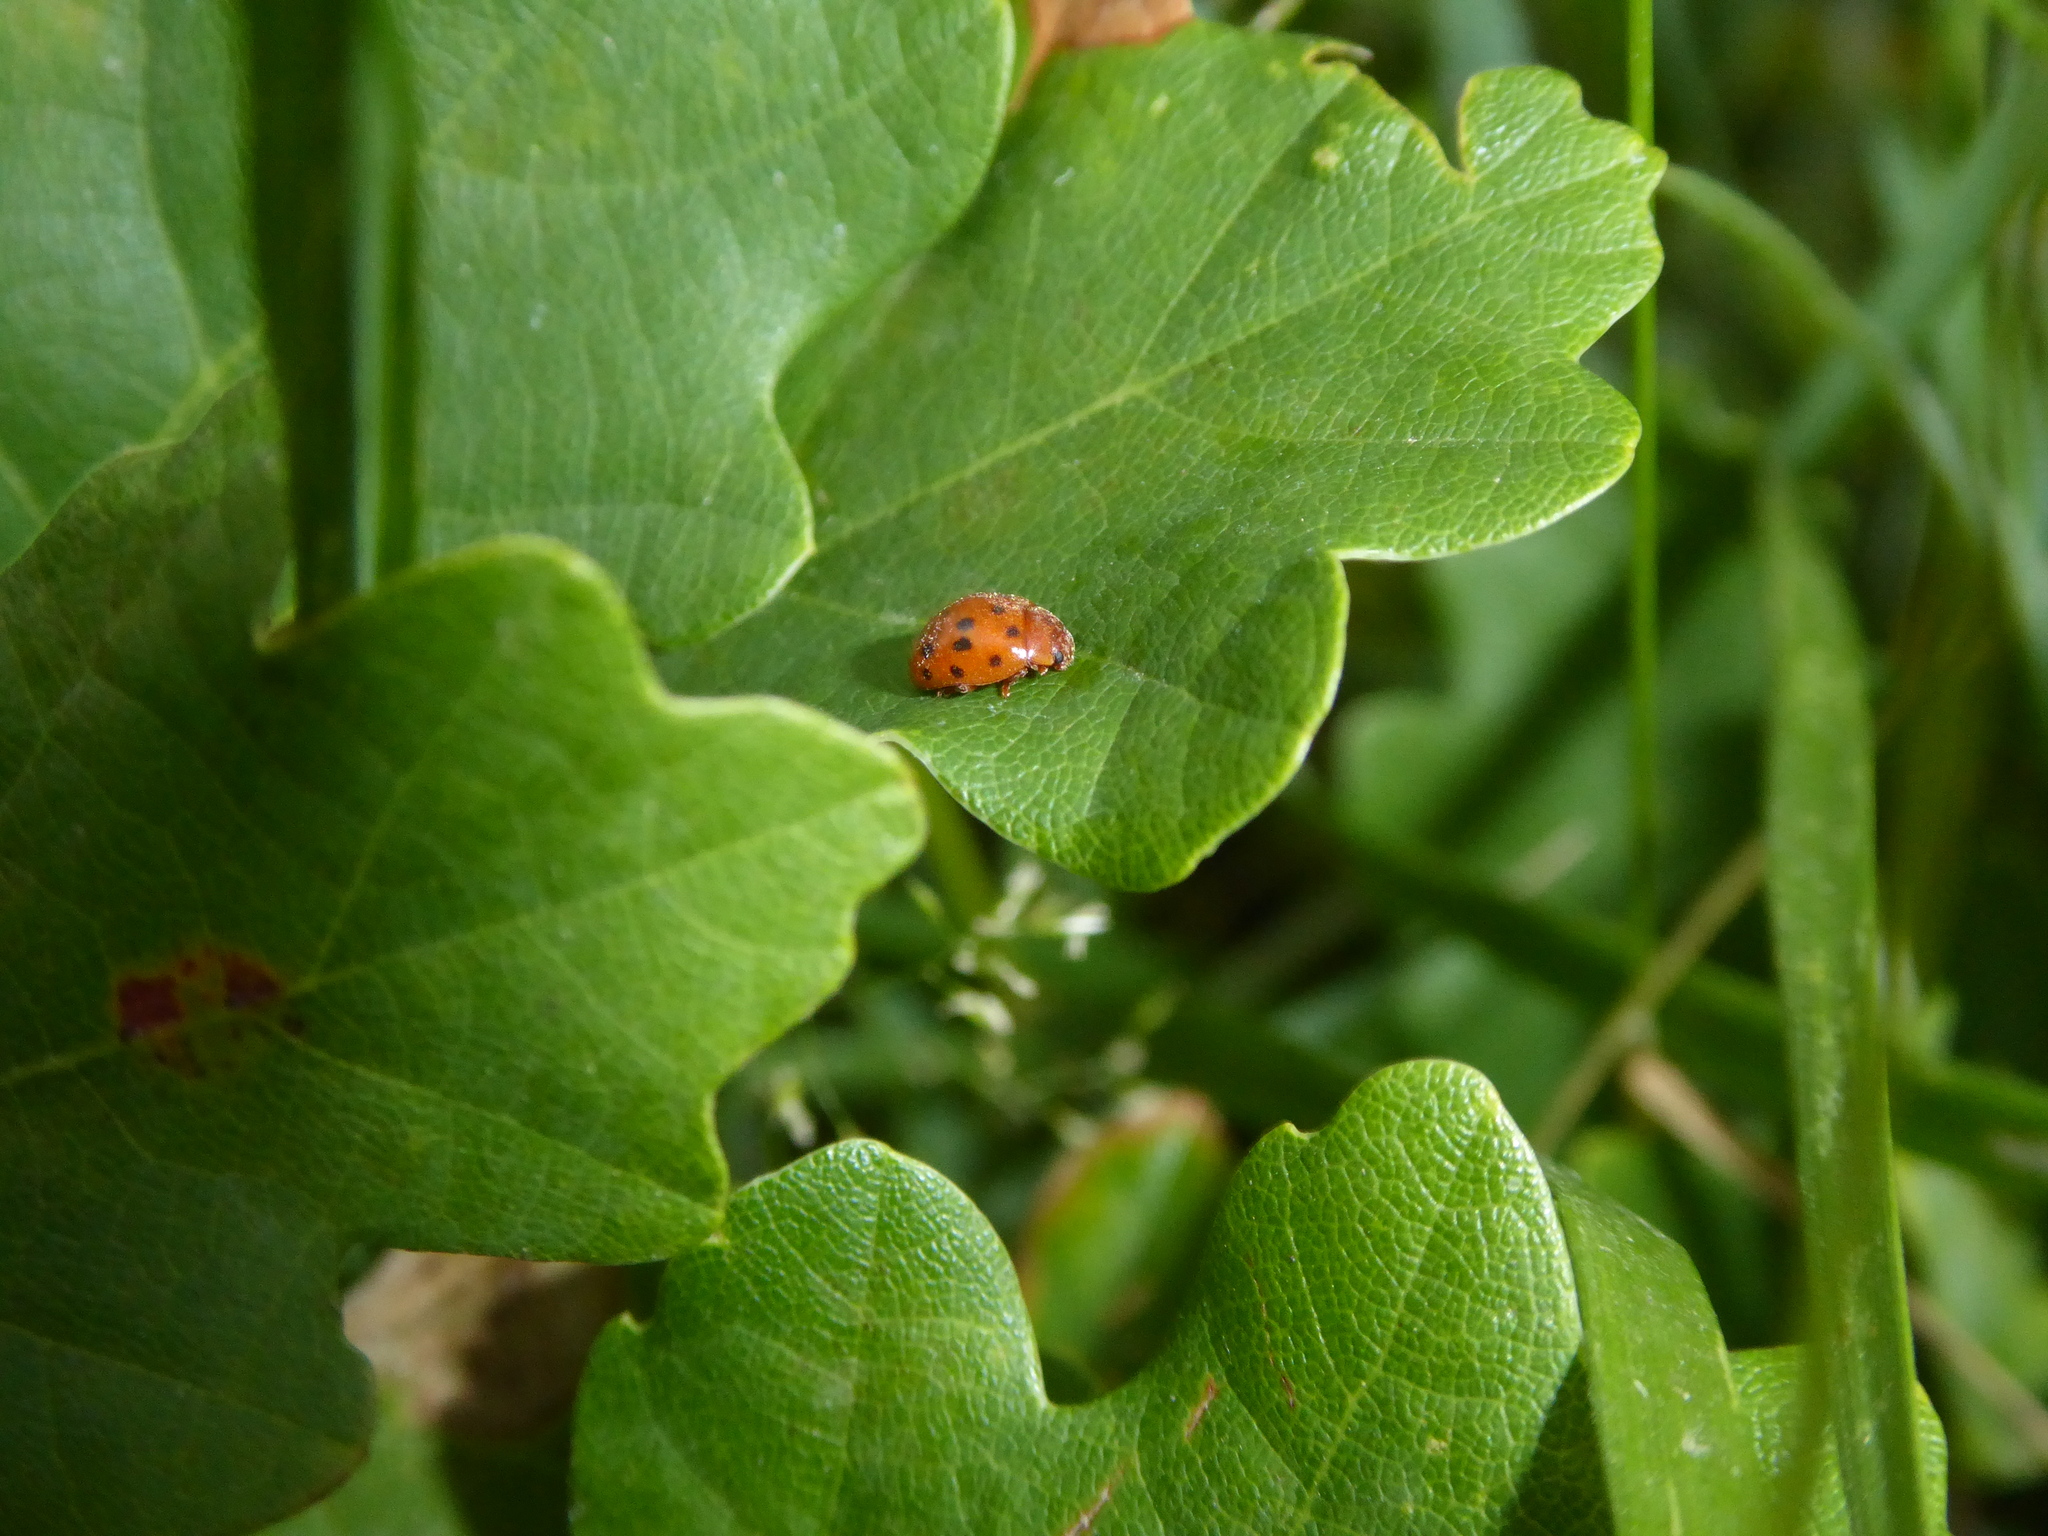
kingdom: Animalia
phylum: Arthropoda
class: Insecta
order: Coleoptera
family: Coccinellidae
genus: Subcoccinella
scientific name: Subcoccinella vigintiquatuorpunctata
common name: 24-spot ladybird
